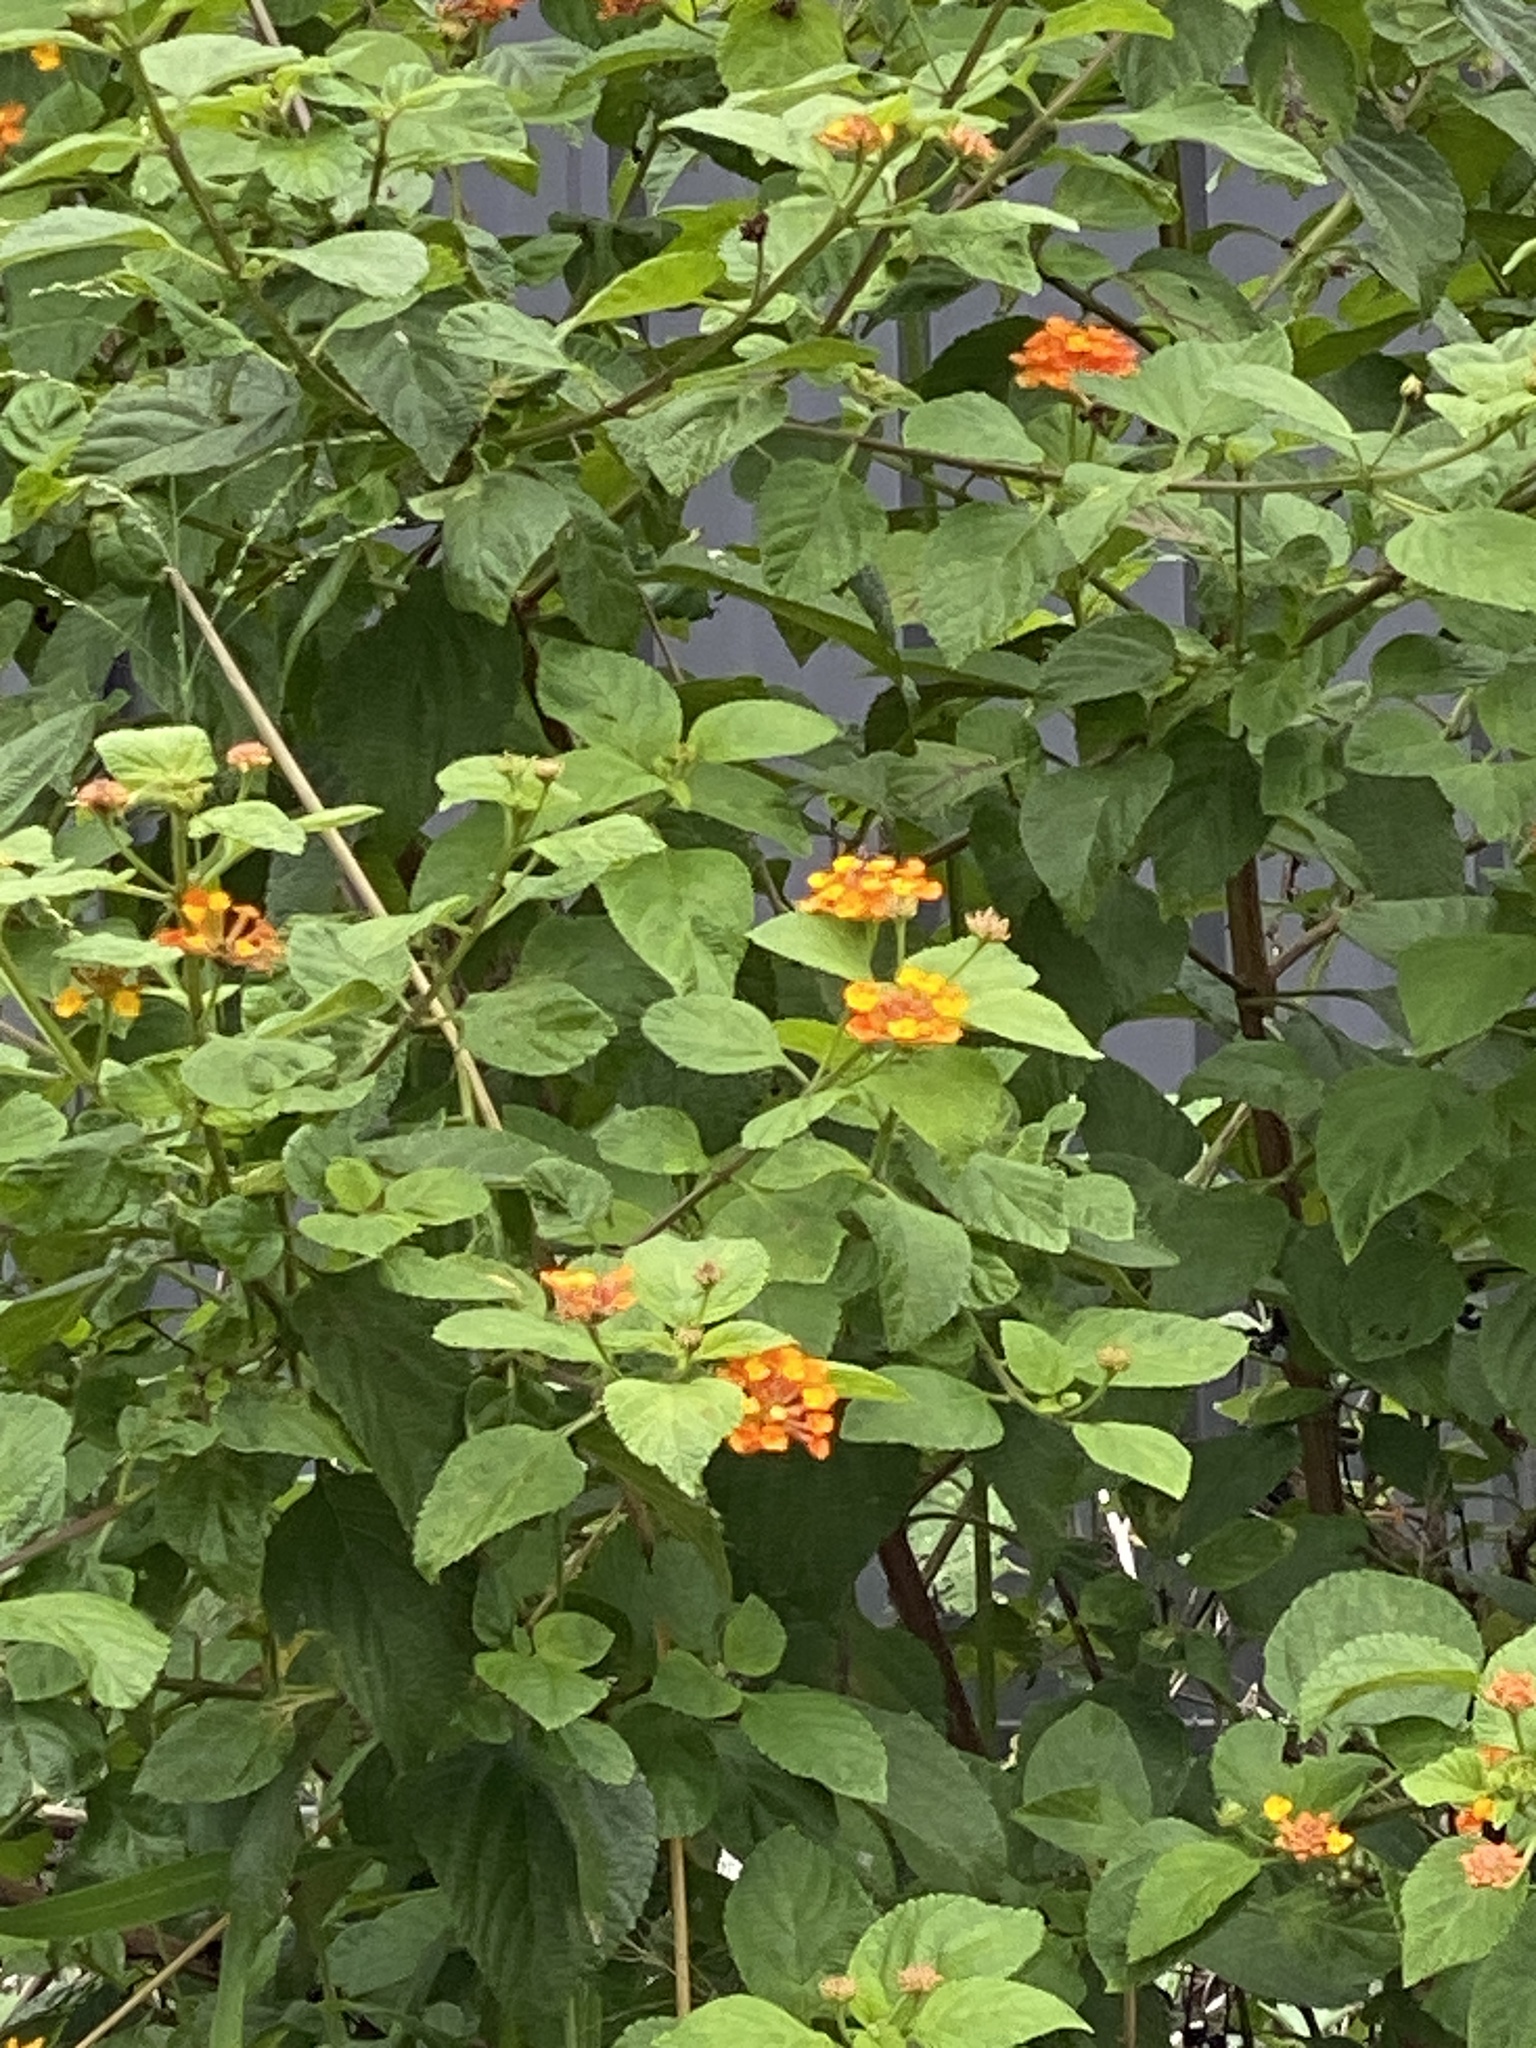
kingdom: Plantae
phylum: Tracheophyta
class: Magnoliopsida
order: Lamiales
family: Verbenaceae
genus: Lantana
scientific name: Lantana camara
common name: Lantana
